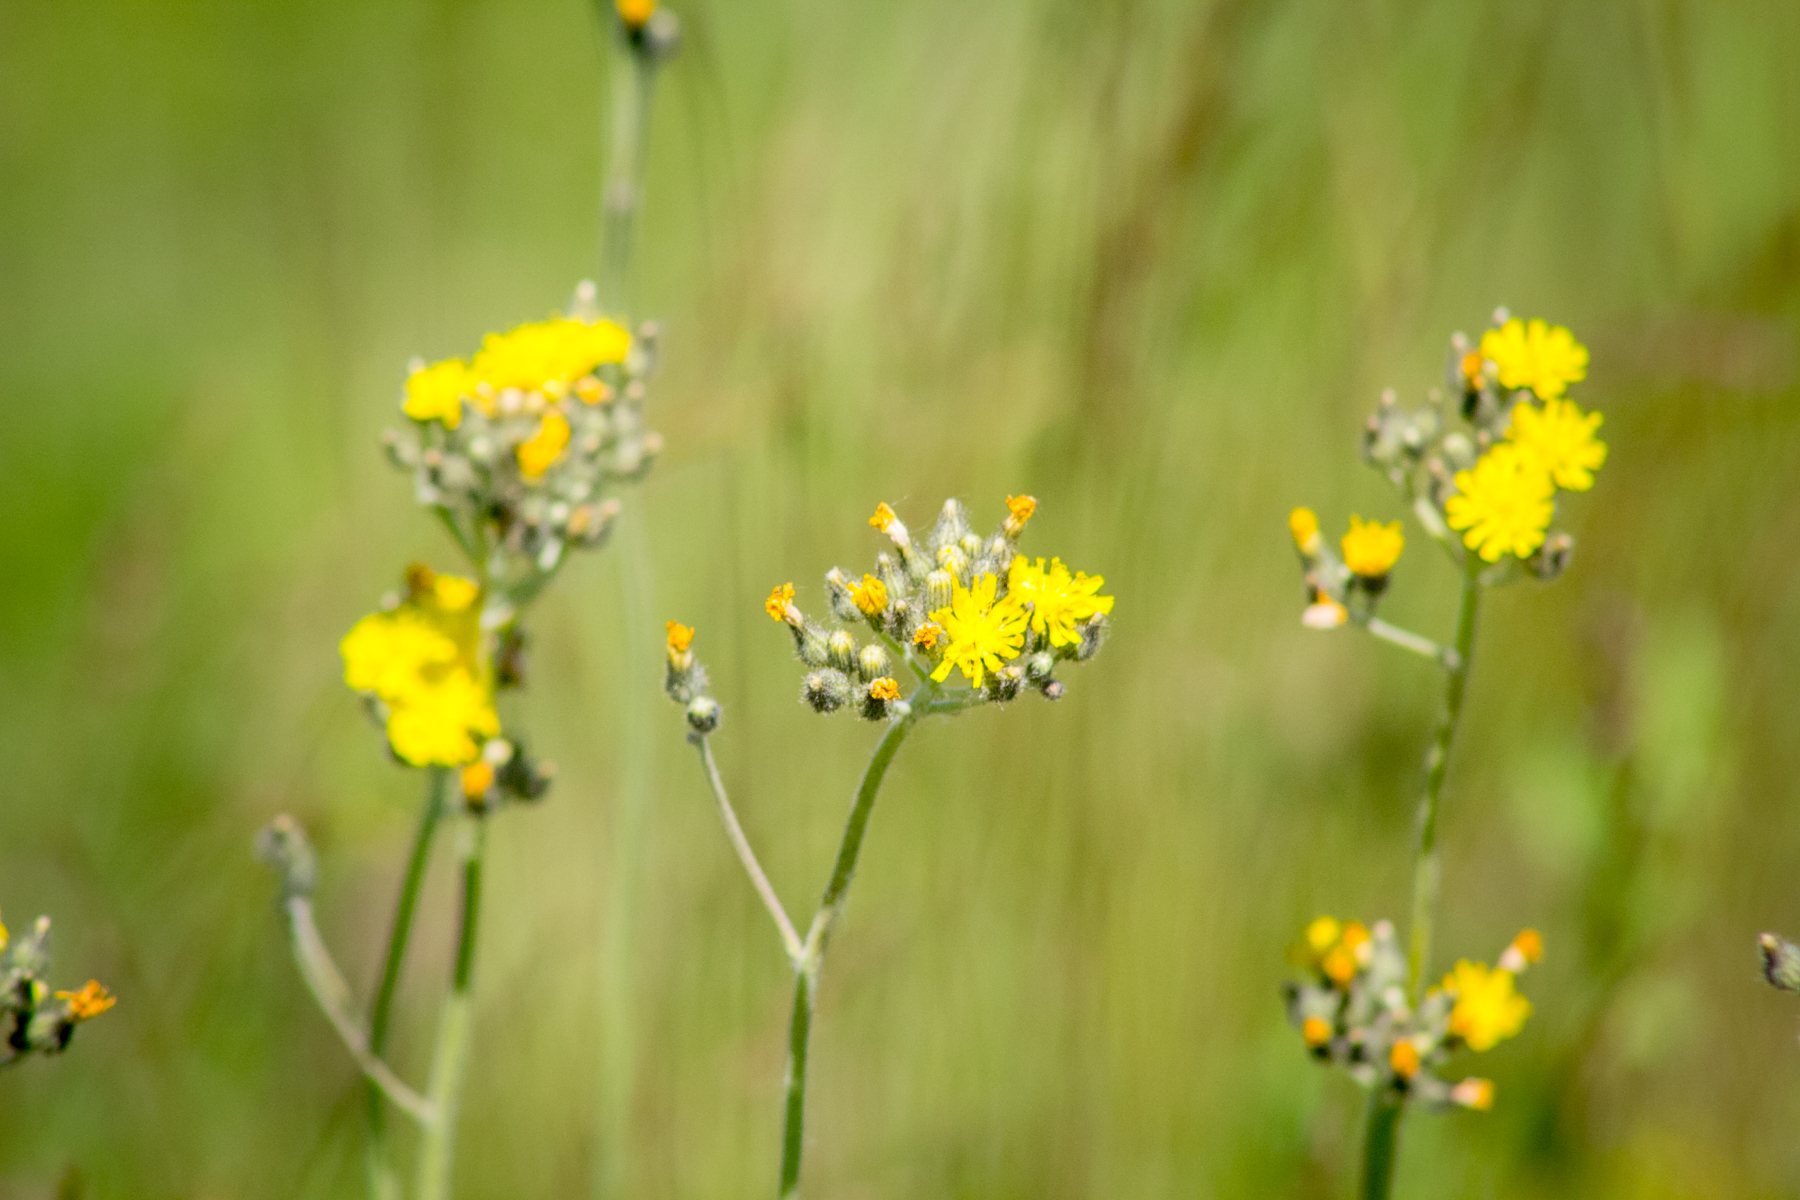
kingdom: Plantae
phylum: Tracheophyta
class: Magnoliopsida
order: Asterales
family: Asteraceae
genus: Pilosella
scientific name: Pilosella
